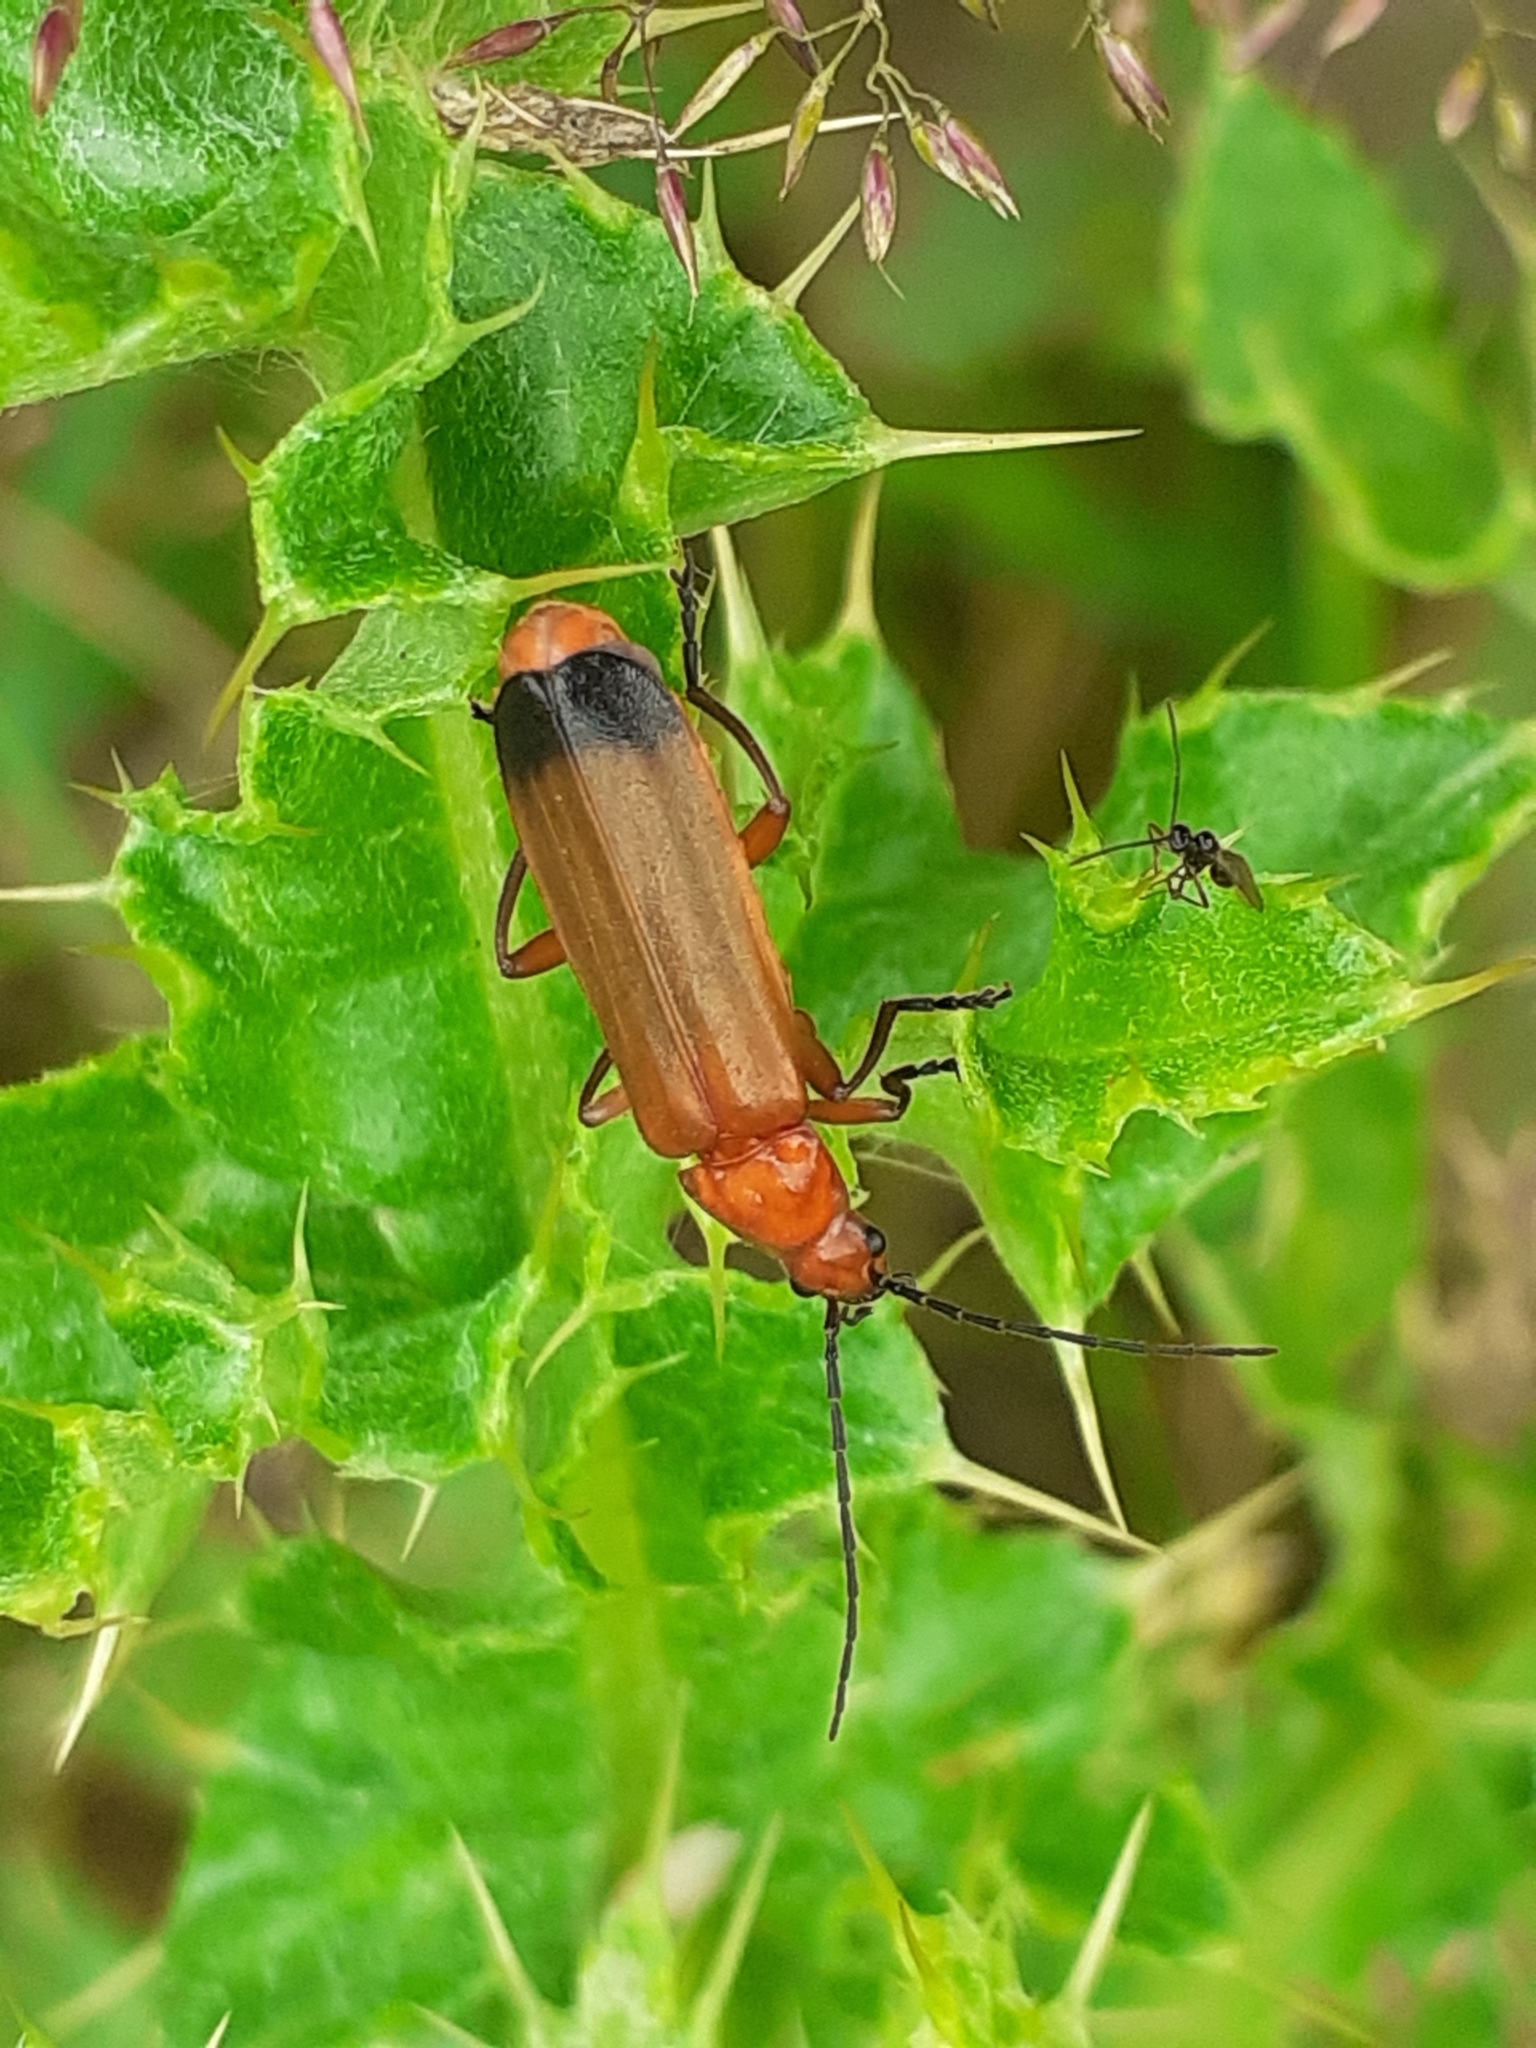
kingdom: Animalia
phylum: Arthropoda
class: Insecta
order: Coleoptera
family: Cantharidae
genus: Rhagonycha
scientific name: Rhagonycha fulva
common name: Common red soldier beetle
